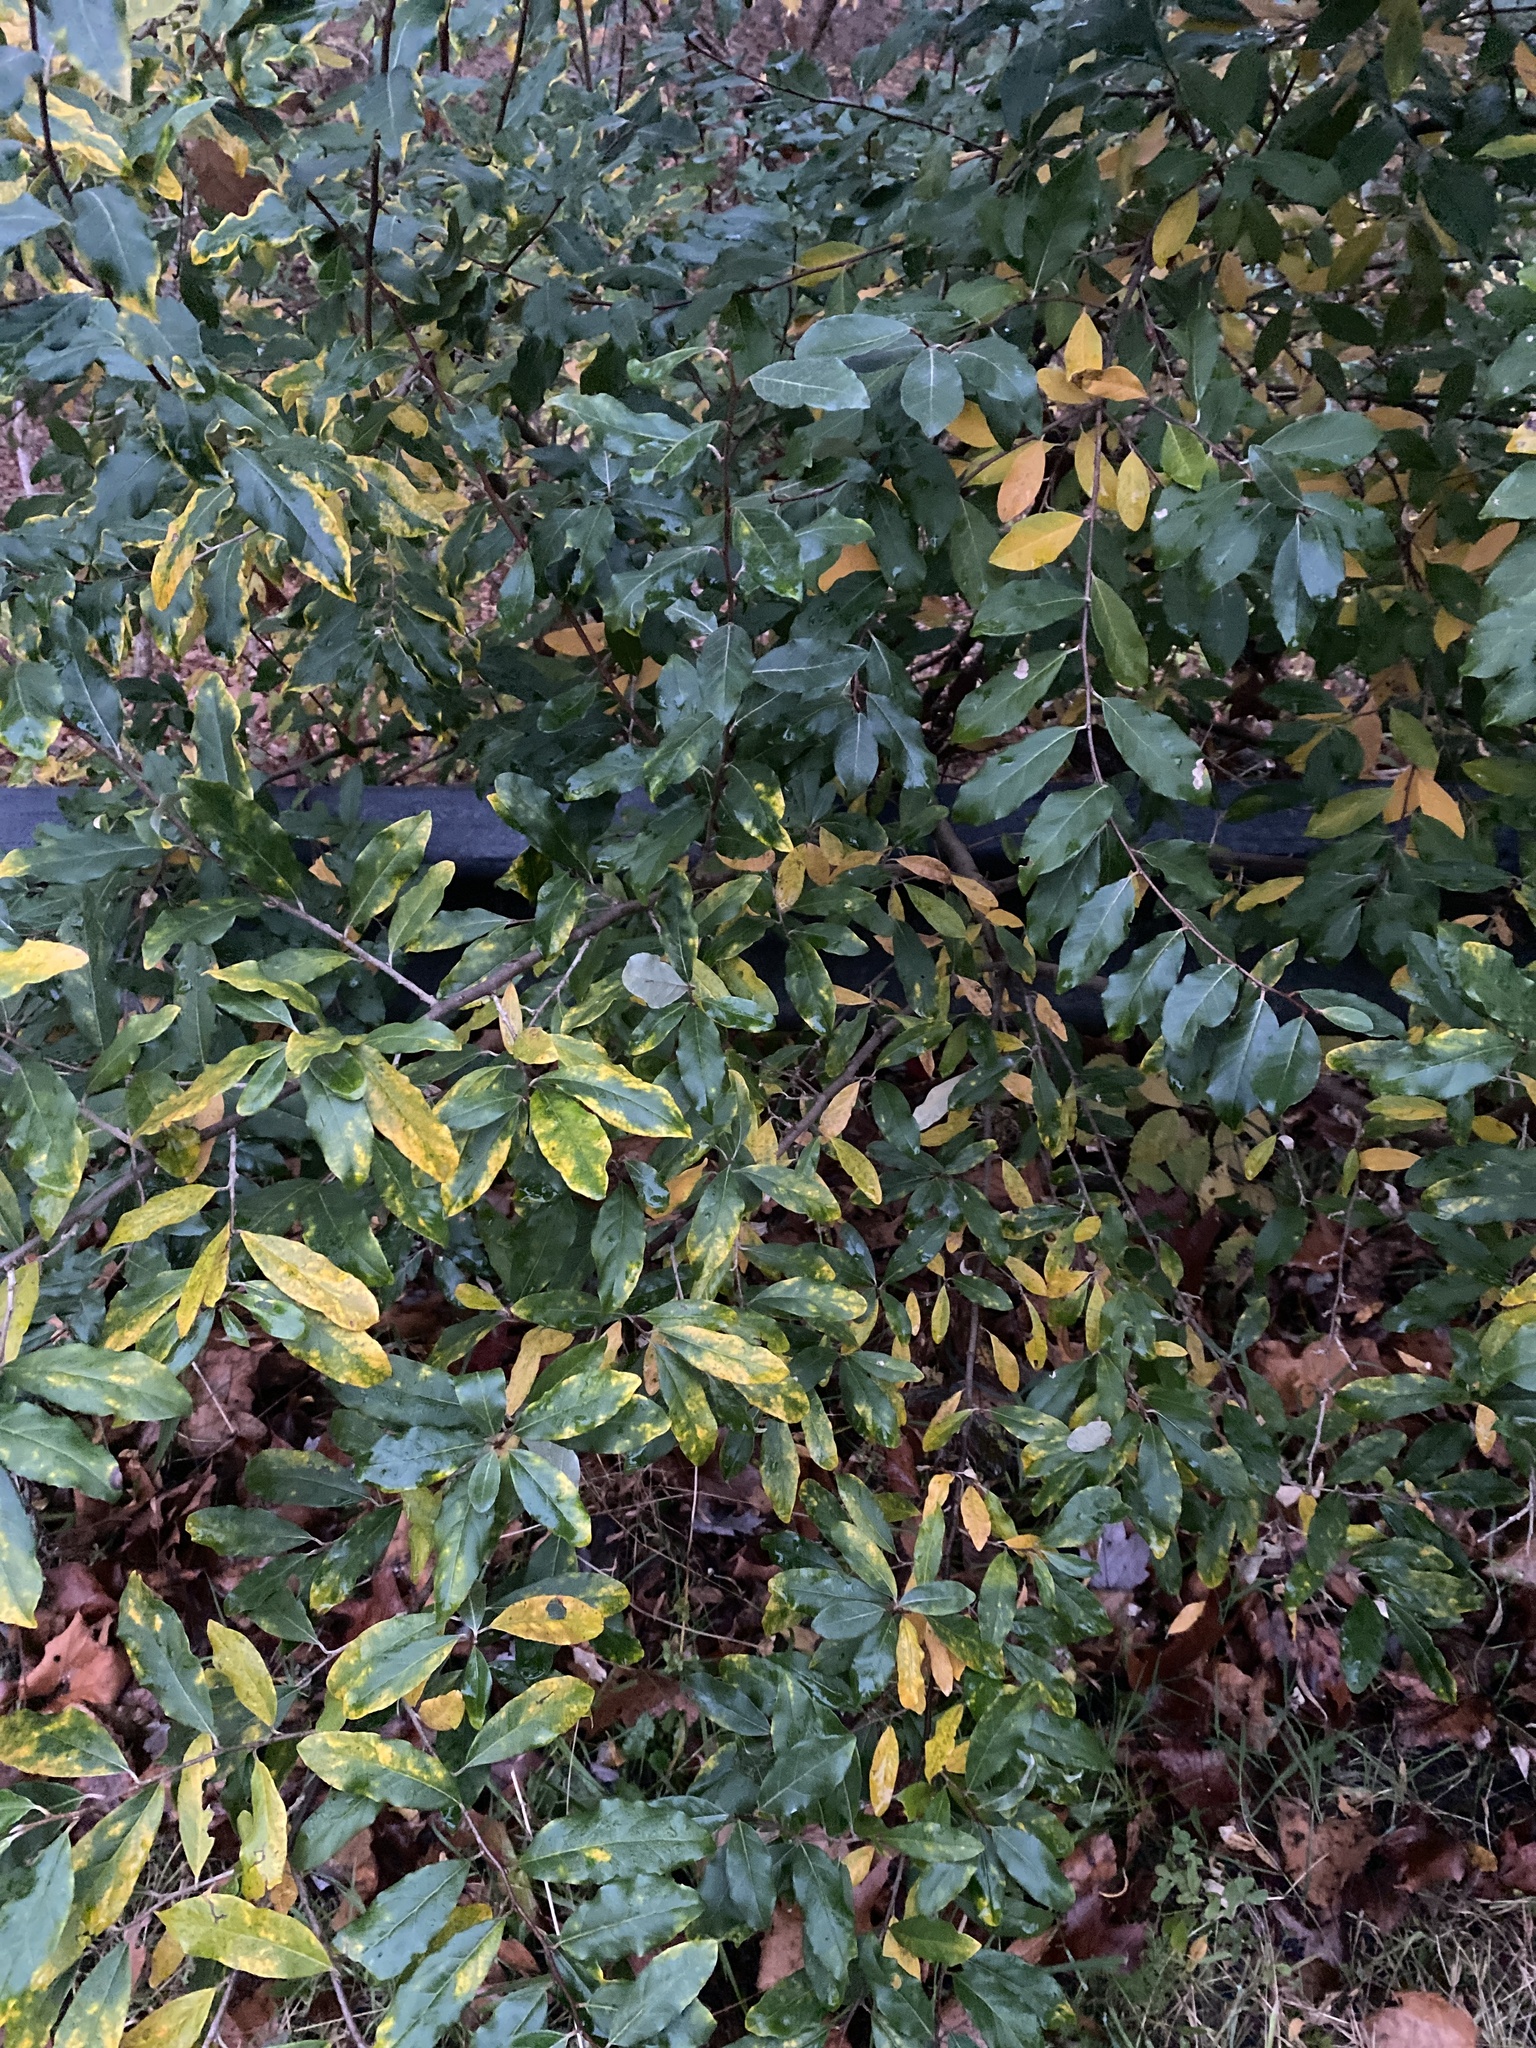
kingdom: Plantae
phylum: Tracheophyta
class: Magnoliopsida
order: Rosales
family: Elaeagnaceae
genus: Elaeagnus
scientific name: Elaeagnus umbellata
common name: Autumn olive
